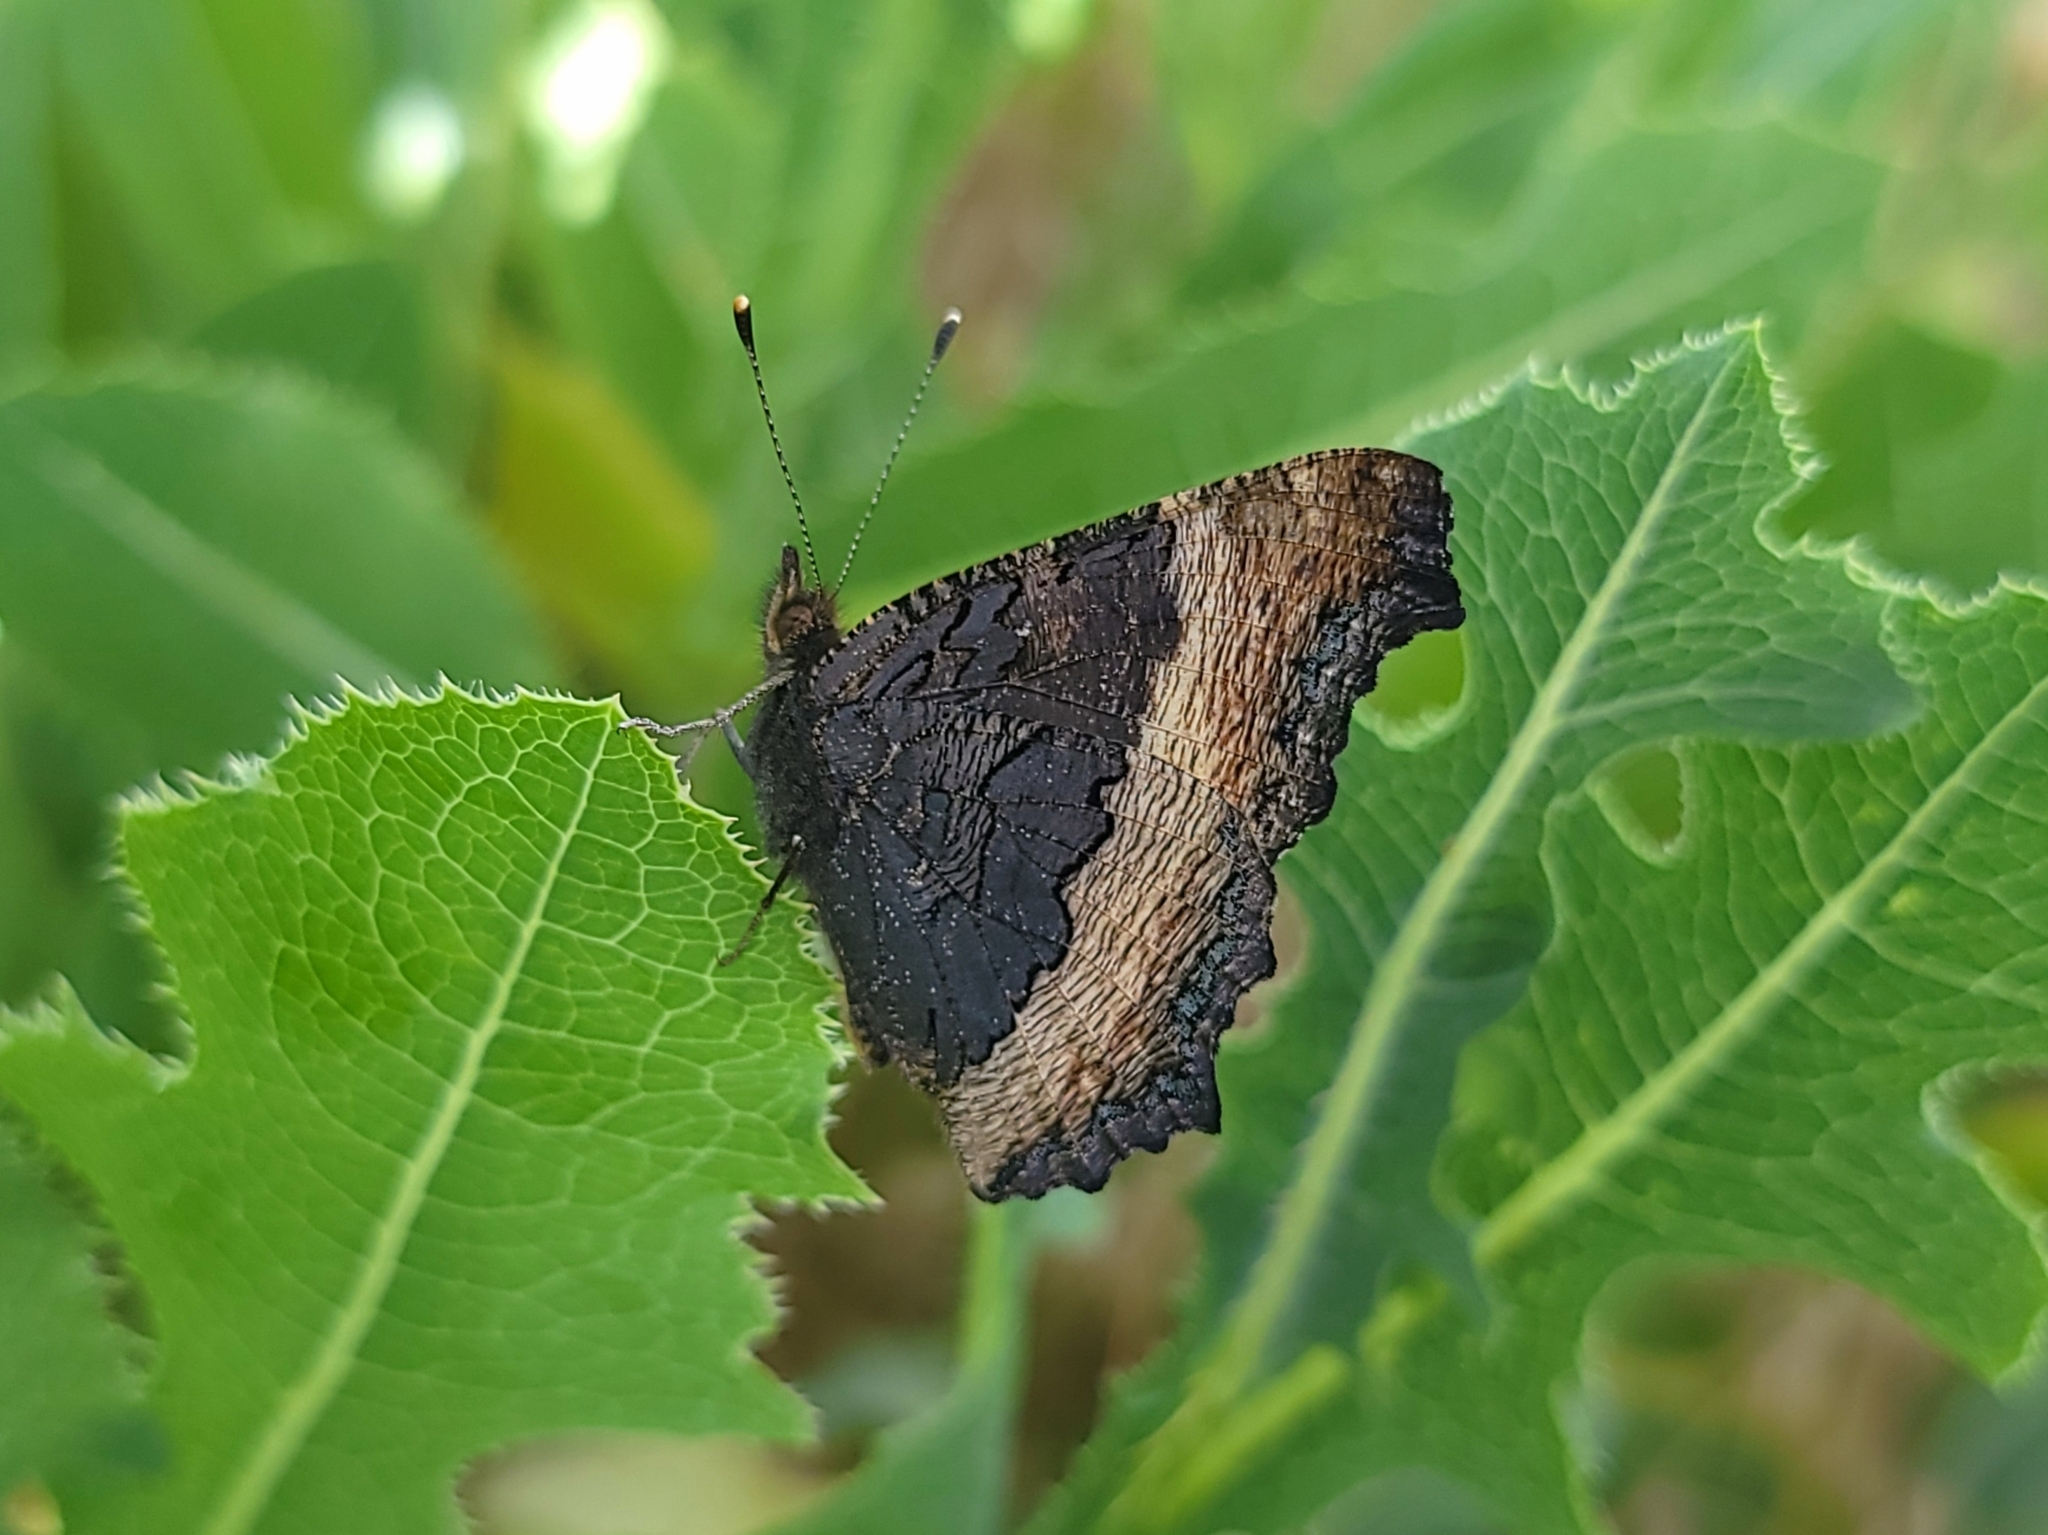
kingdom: Animalia
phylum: Arthropoda
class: Insecta
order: Lepidoptera
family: Nymphalidae
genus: Aglais
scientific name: Aglais milberti
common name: Milbert's tortoiseshell
